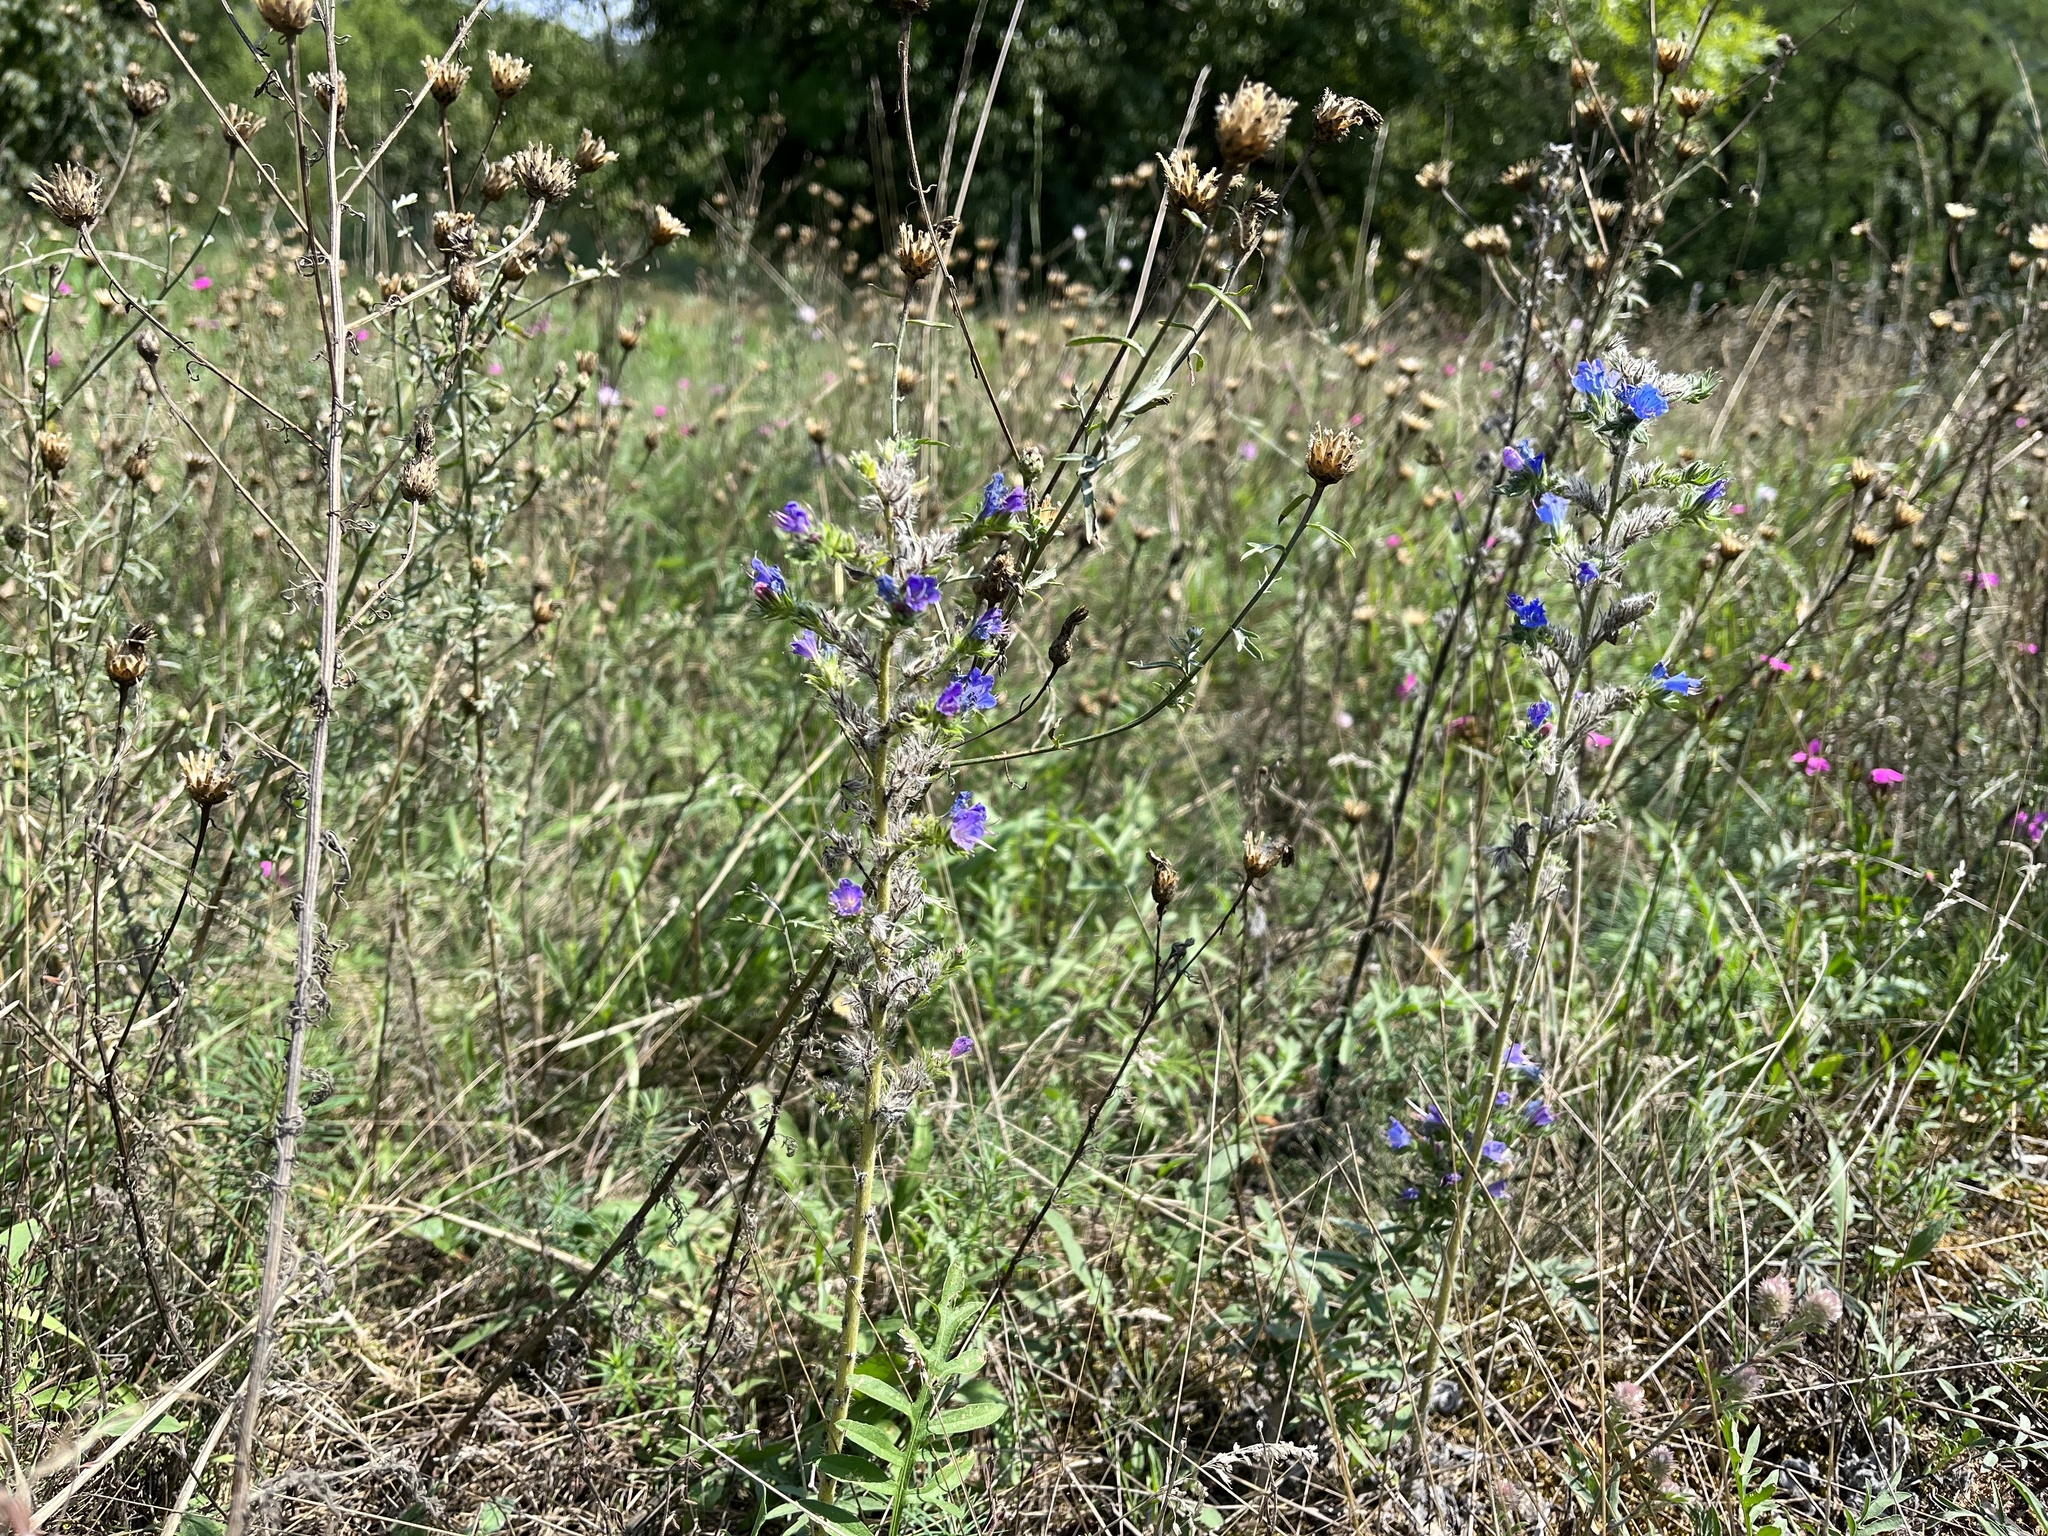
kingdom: Plantae
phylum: Tracheophyta
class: Magnoliopsida
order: Boraginales
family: Boraginaceae
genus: Echium
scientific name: Echium vulgare
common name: Common viper's bugloss
